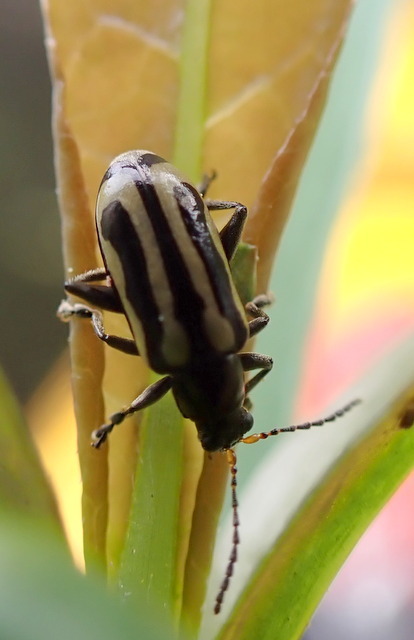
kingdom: Animalia
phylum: Arthropoda
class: Insecta
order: Coleoptera
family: Chrysomelidae
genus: Agasicles
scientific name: Agasicles hygrophila
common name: Alligatorweed flea beetle
